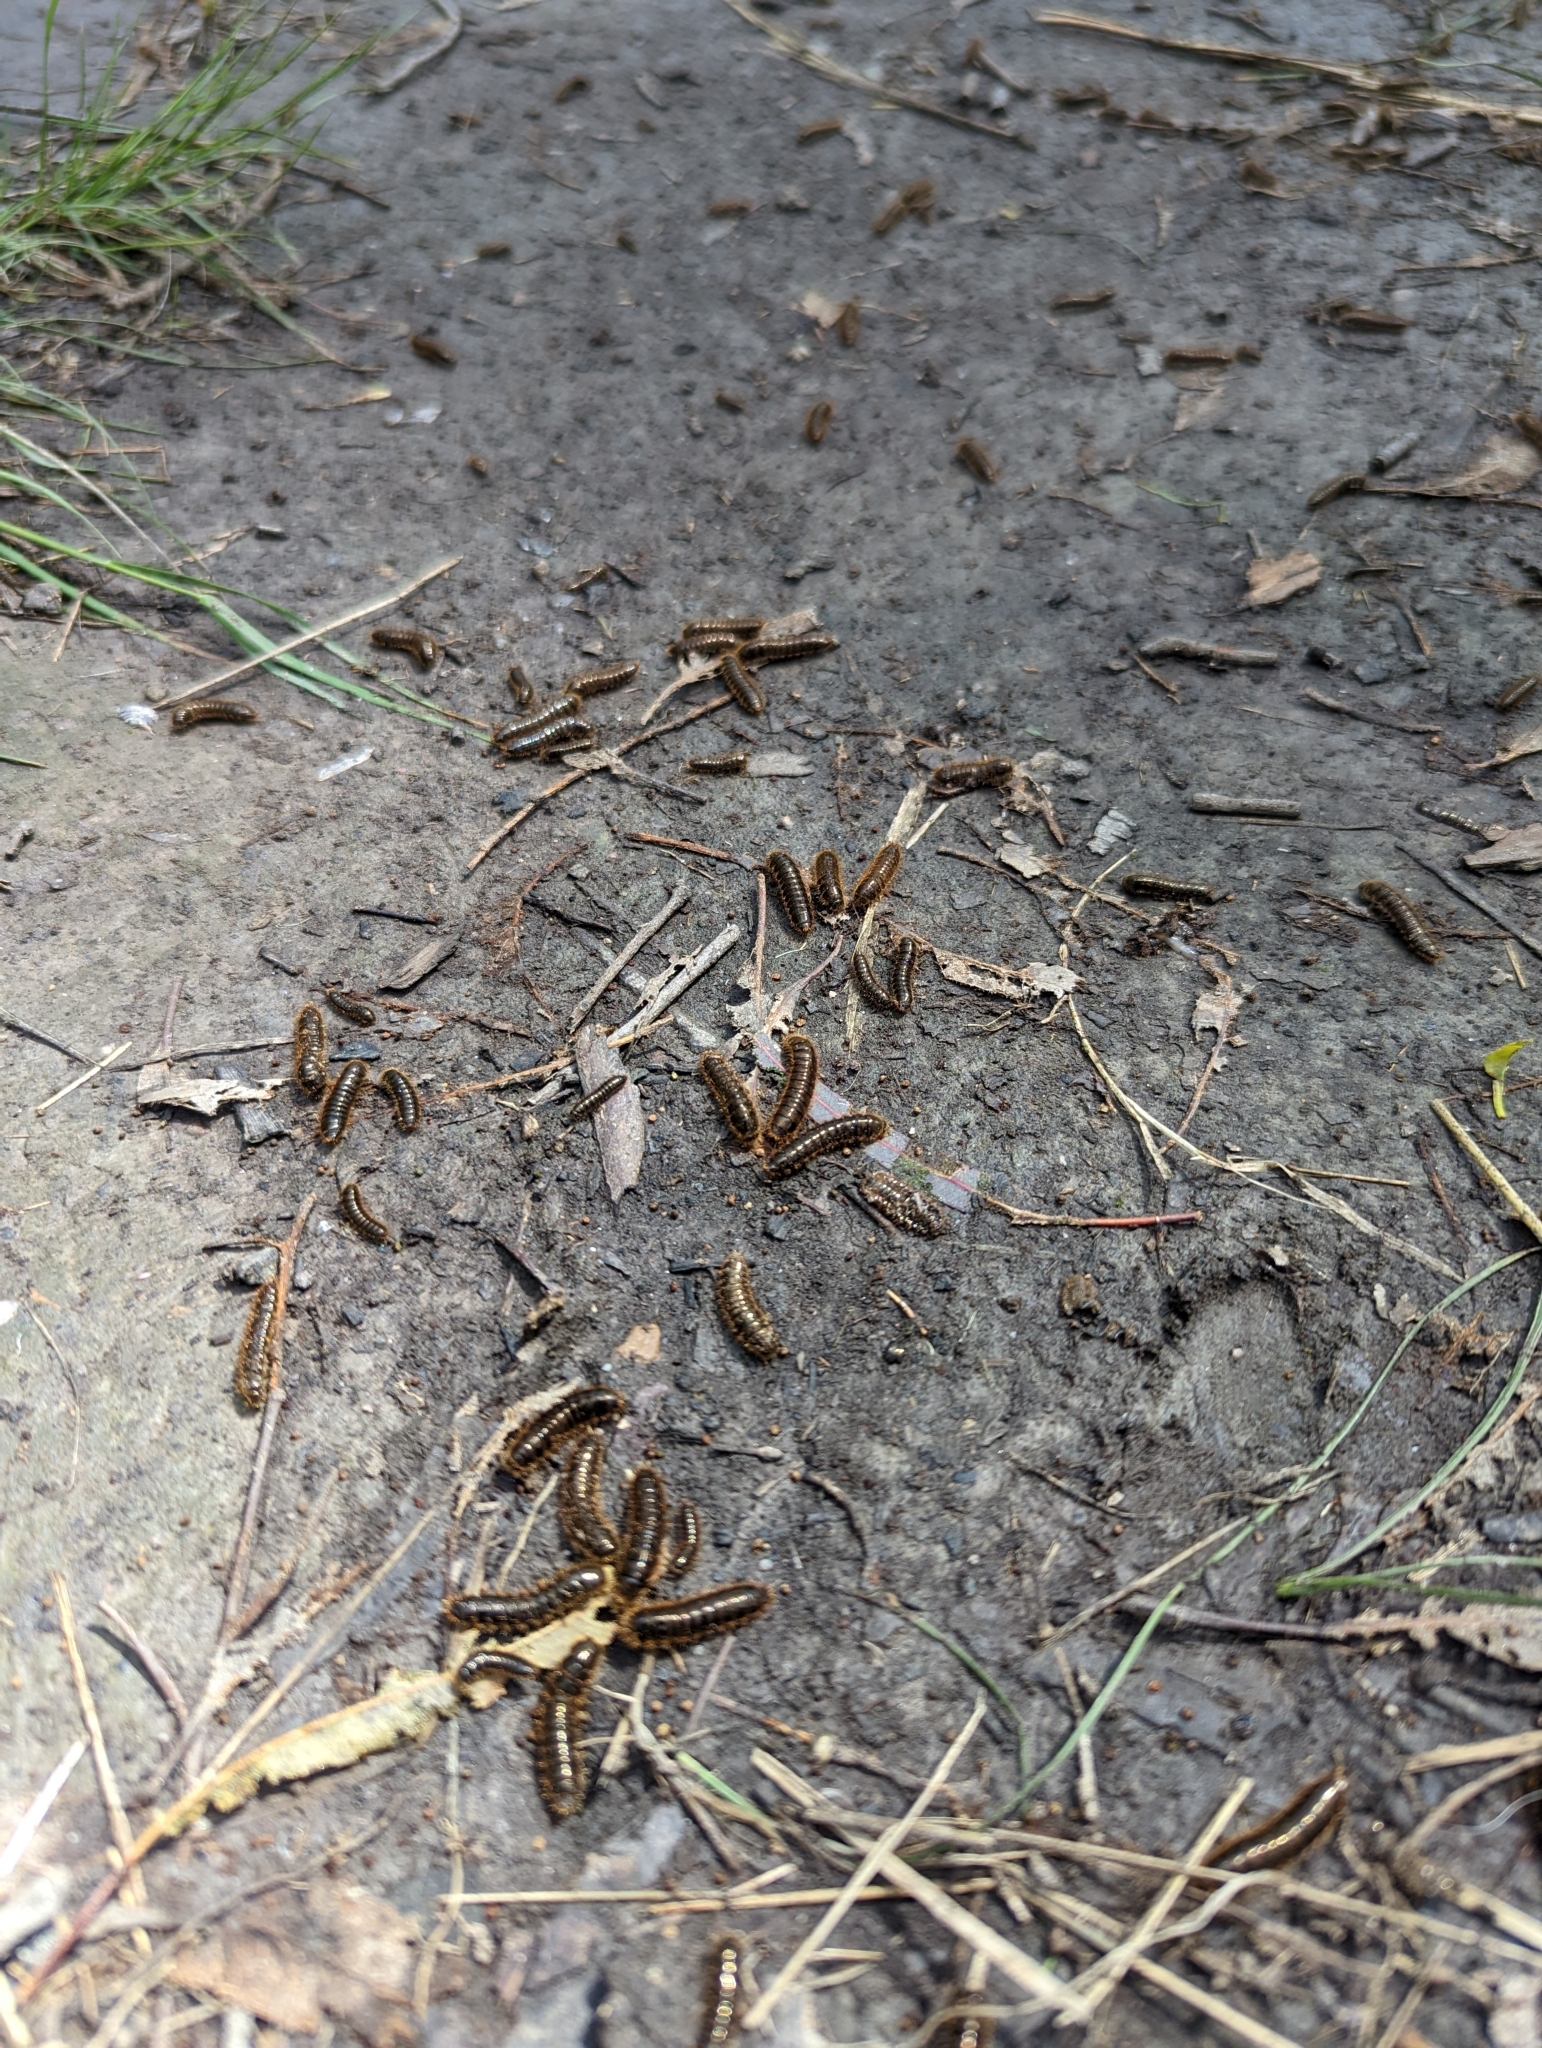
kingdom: Animalia
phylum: Arthropoda
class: Insecta
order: Coleoptera
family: Tenebrionidae
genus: Ecnolagria
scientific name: Ecnolagria
